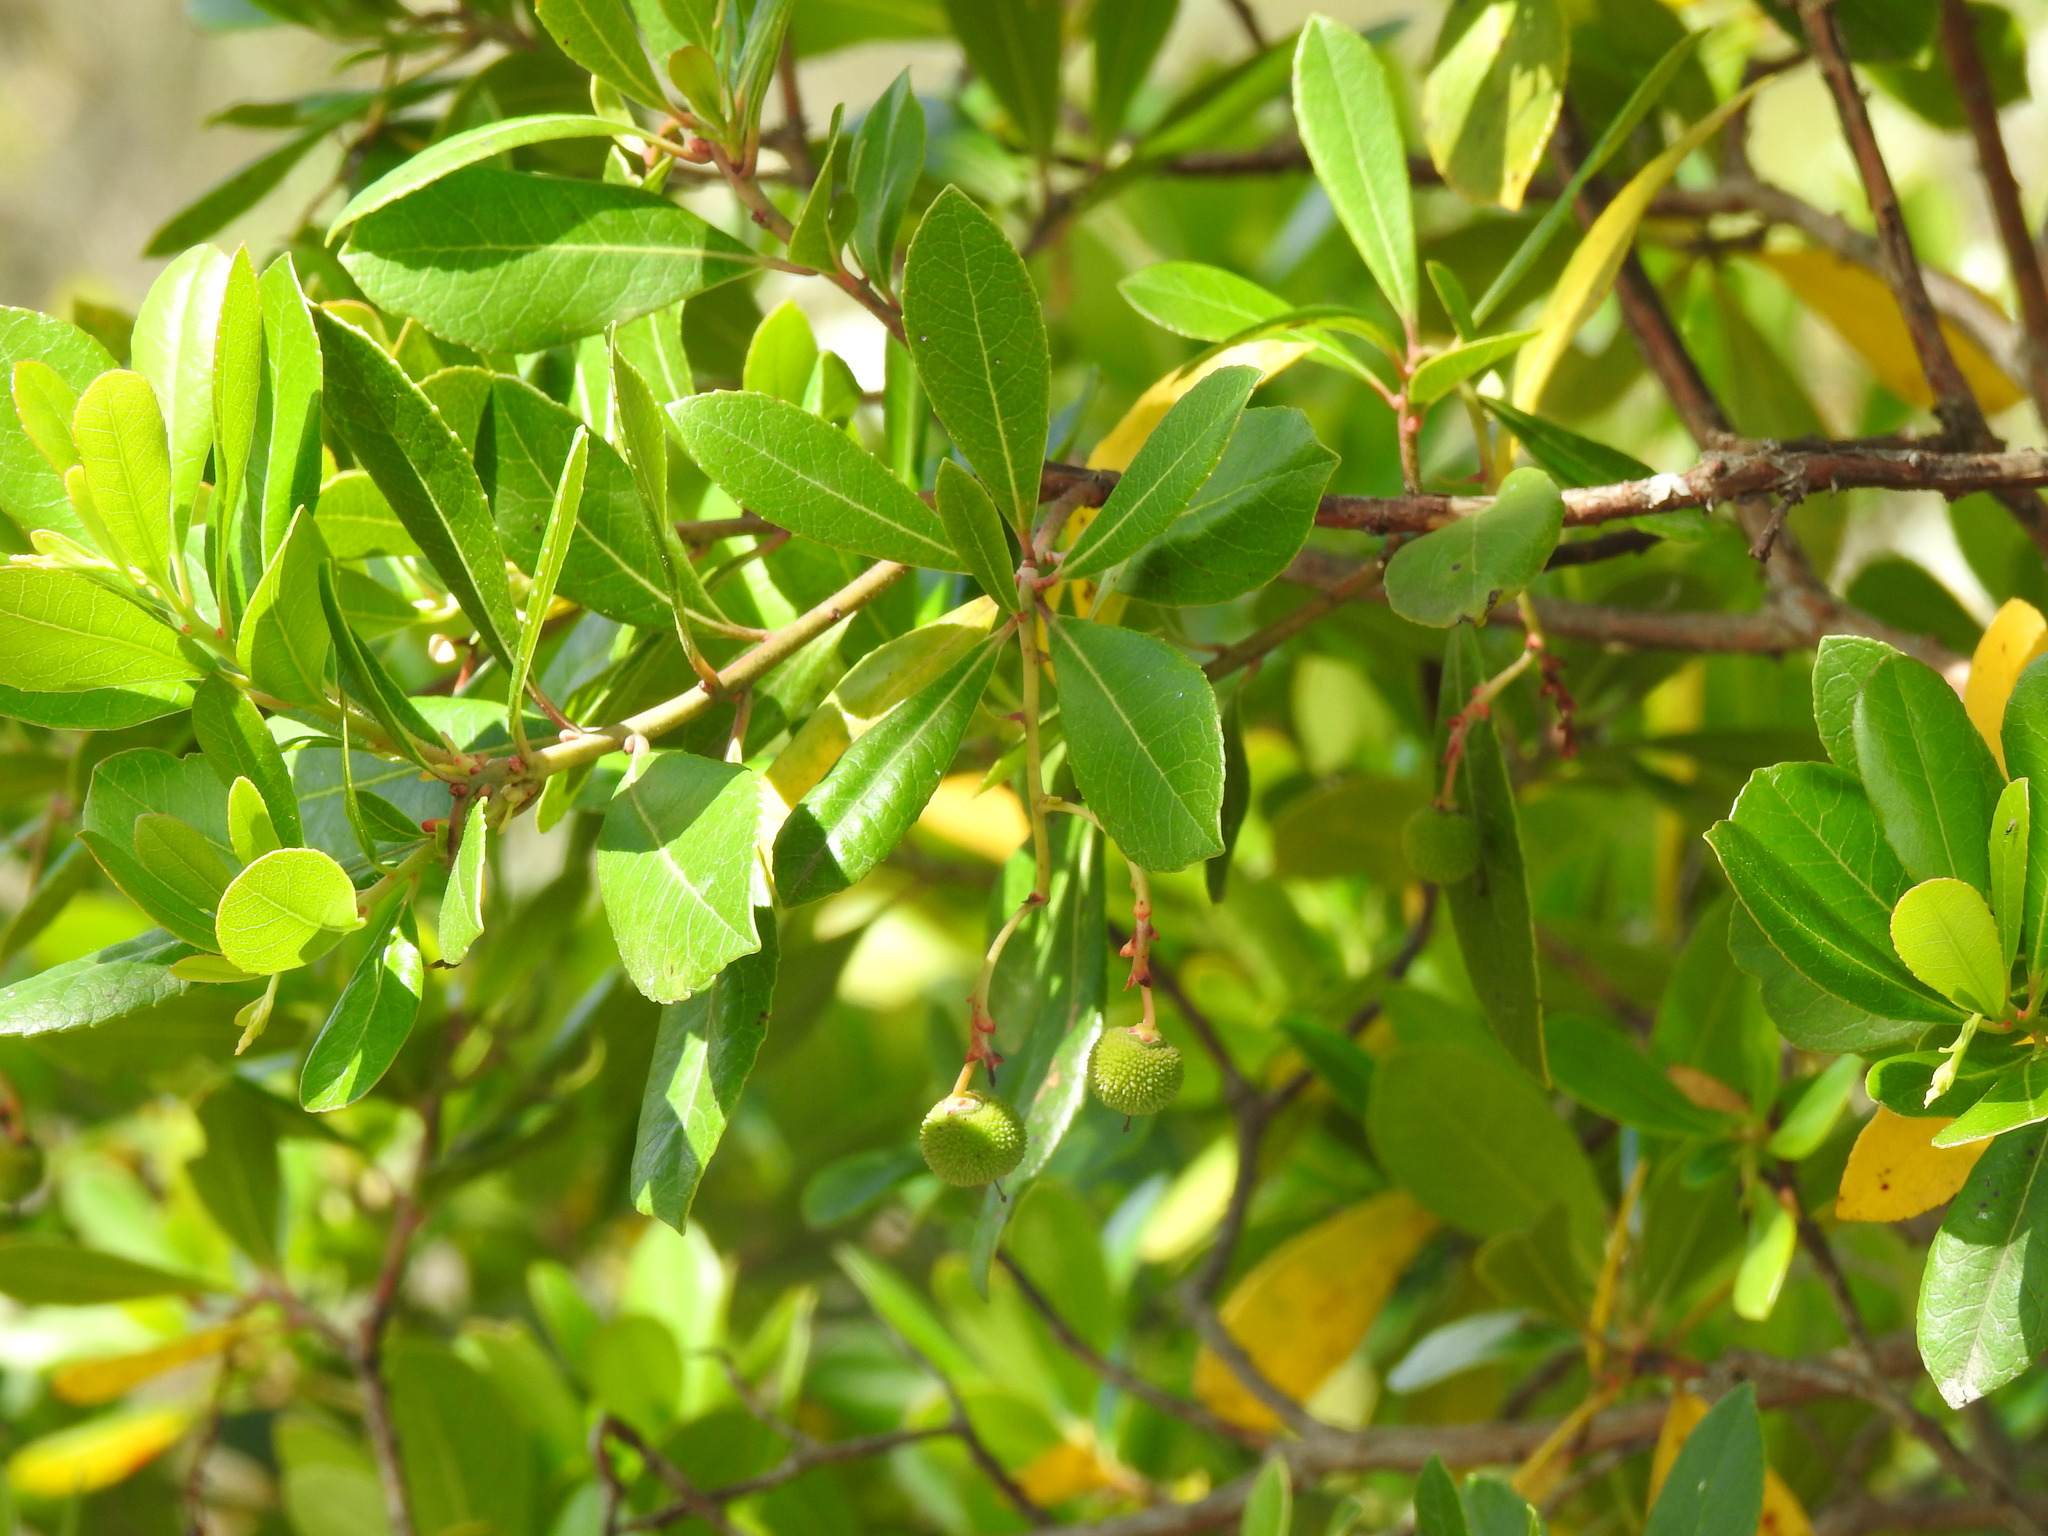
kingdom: Plantae
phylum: Tracheophyta
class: Magnoliopsida
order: Ericales
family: Ericaceae
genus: Arbutus
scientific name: Arbutus unedo
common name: Strawberry-tree
